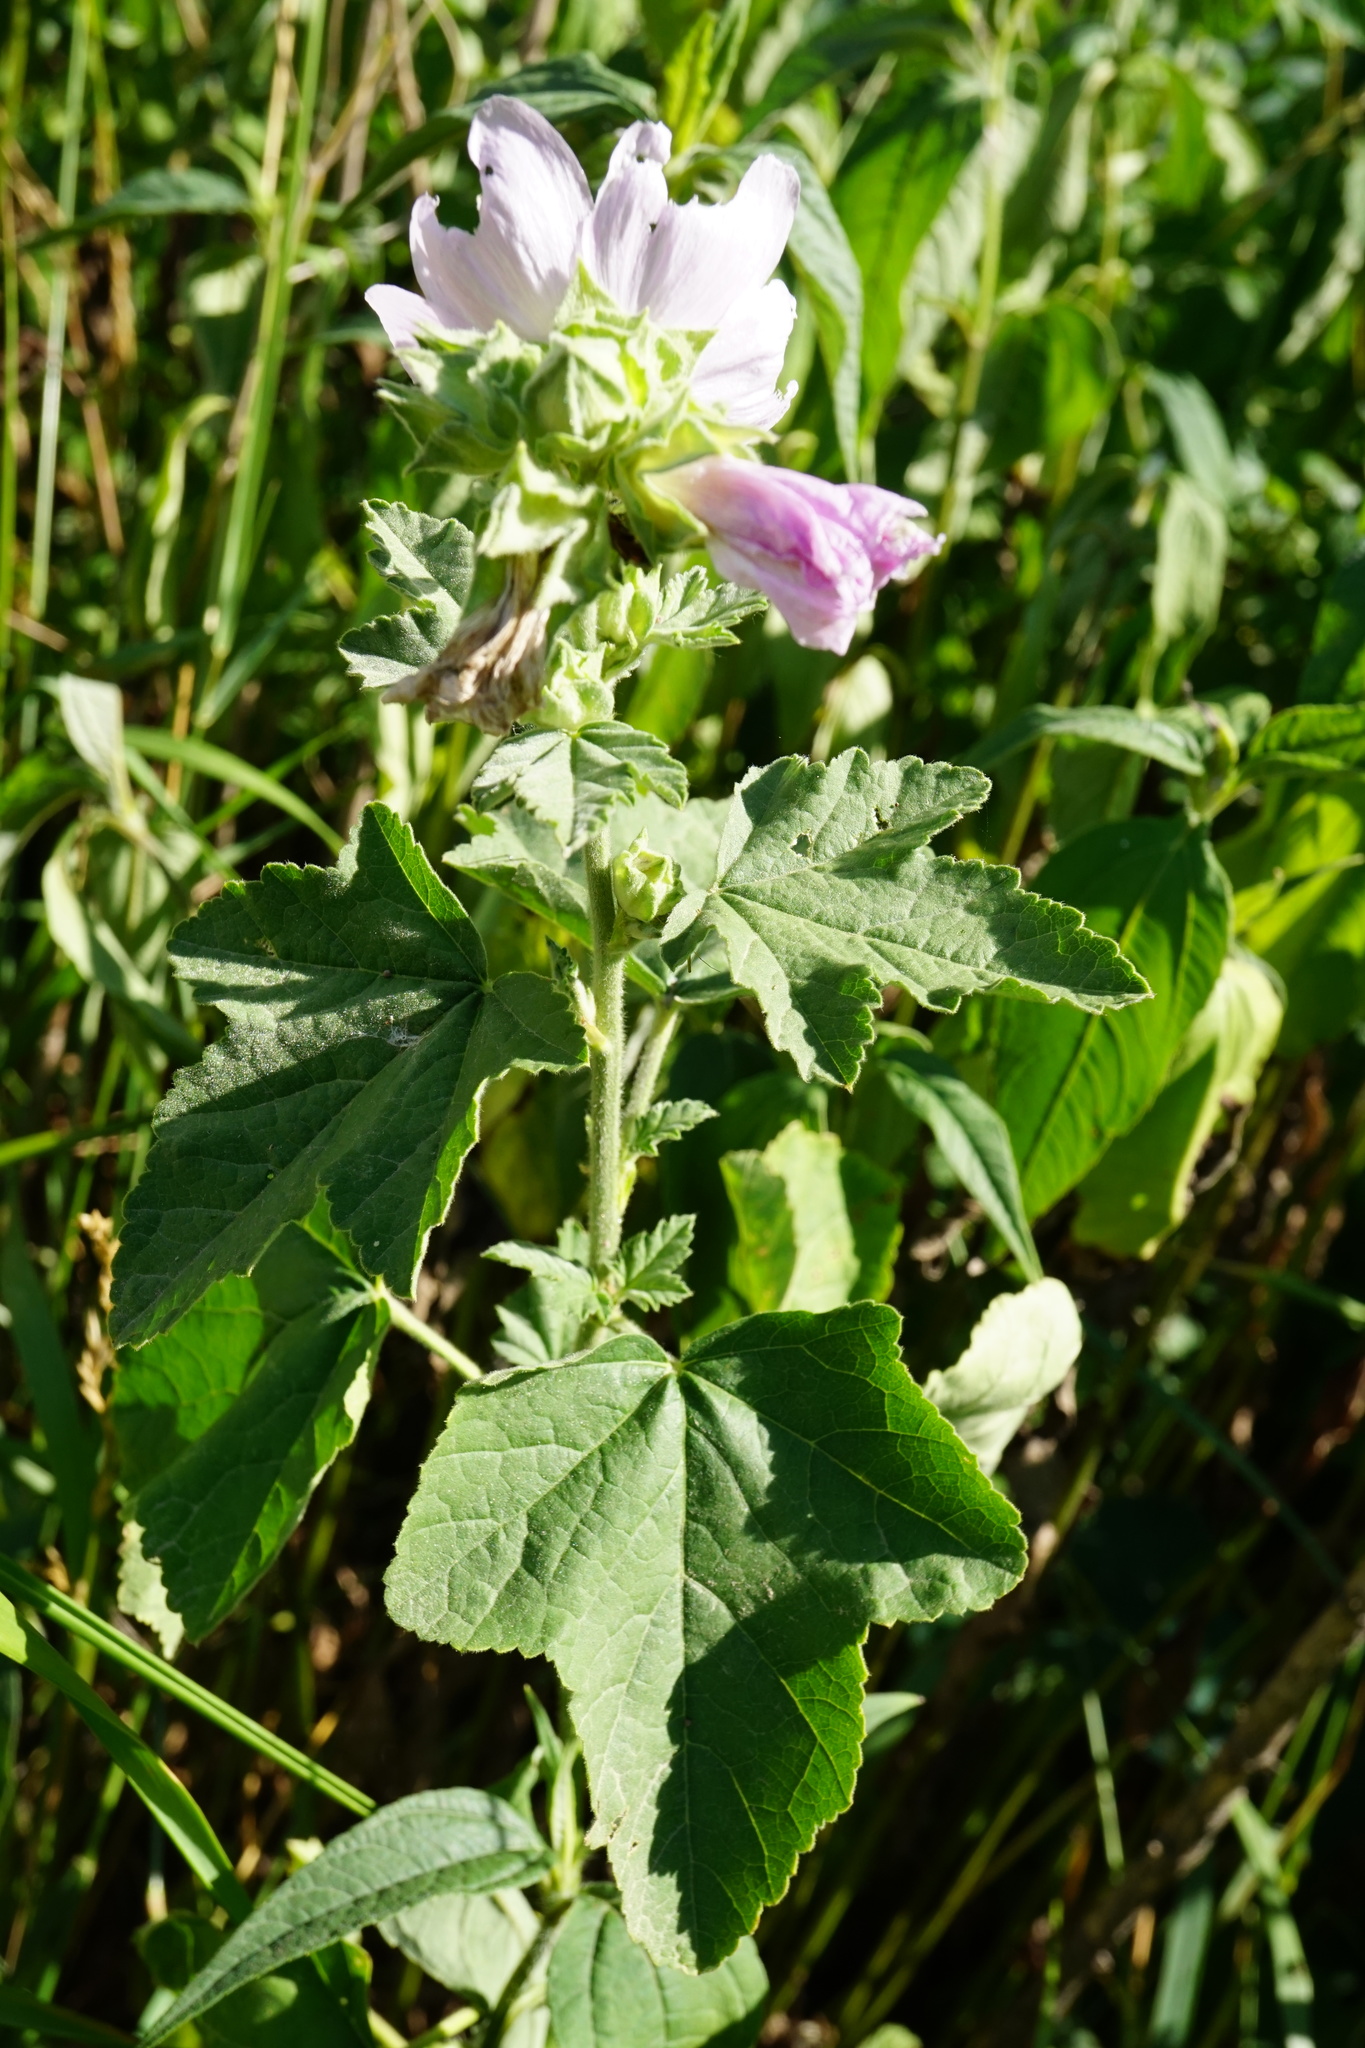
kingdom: Plantae
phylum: Tracheophyta
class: Magnoliopsida
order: Malvales
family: Malvaceae
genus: Malva
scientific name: Malva thuringiaca
